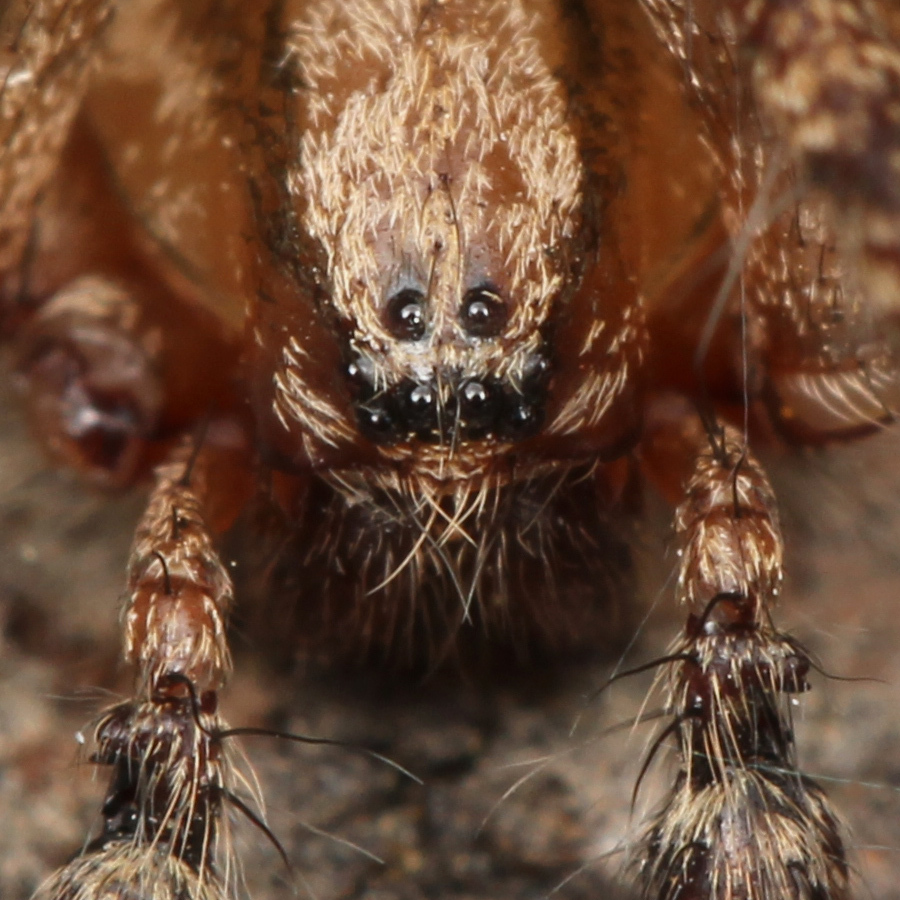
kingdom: Animalia
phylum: Arthropoda
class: Arachnida
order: Araneae
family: Agelenidae
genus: Hololena
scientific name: Hololena
